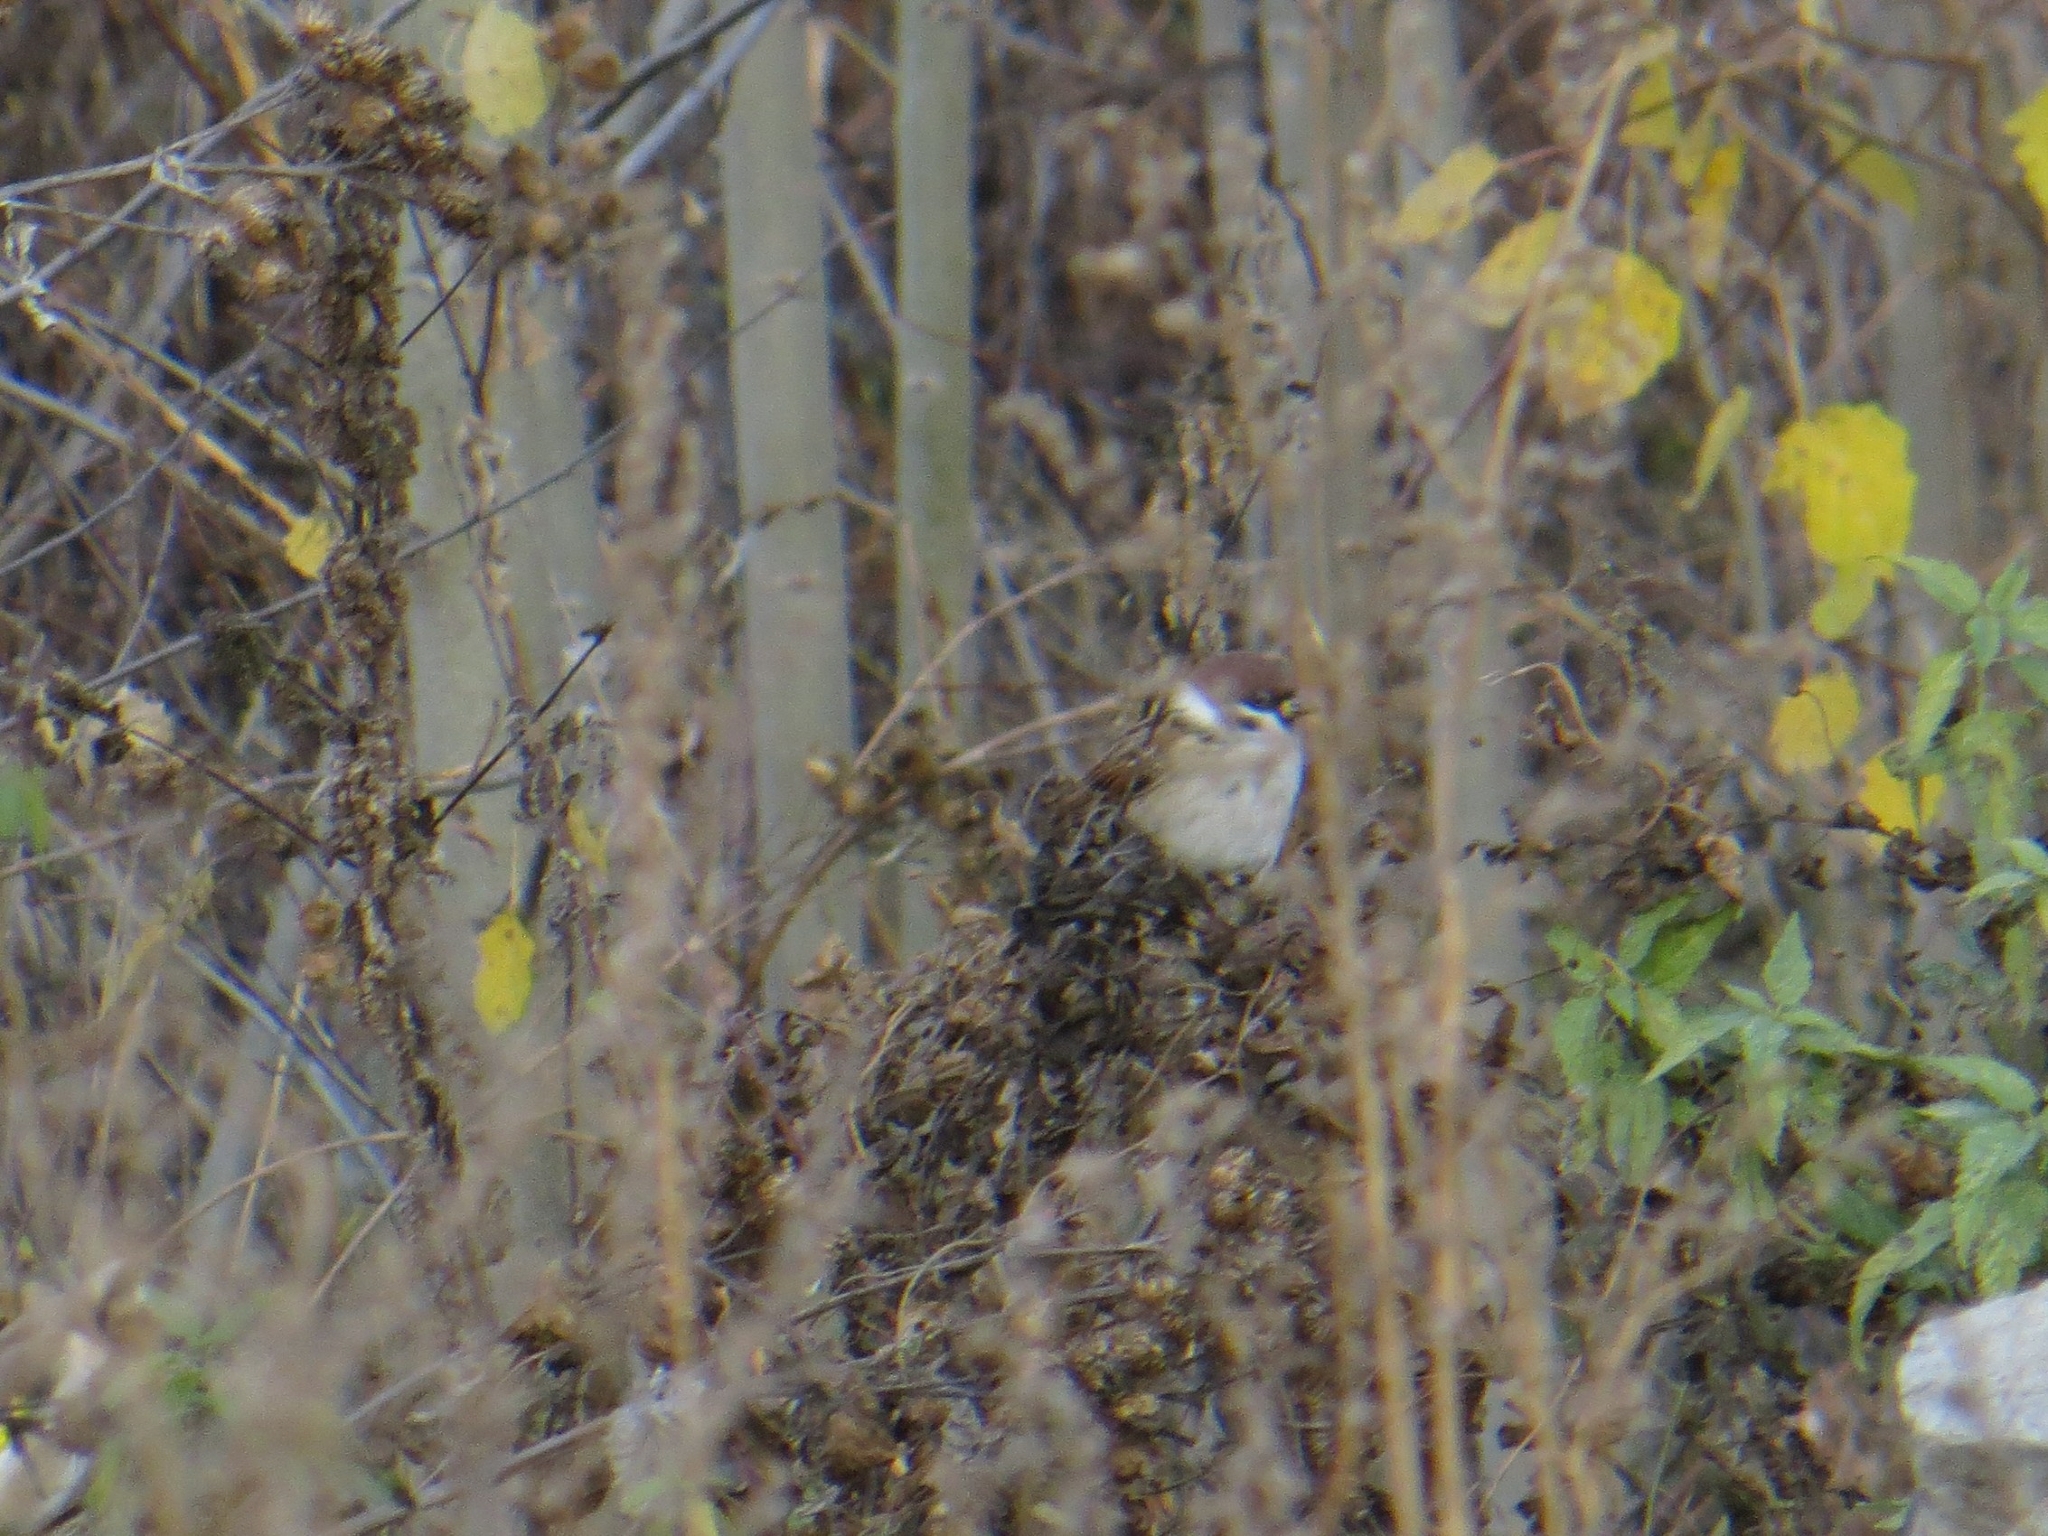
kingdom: Animalia
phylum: Chordata
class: Aves
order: Passeriformes
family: Passeridae
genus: Passer
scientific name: Passer montanus
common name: Eurasian tree sparrow
